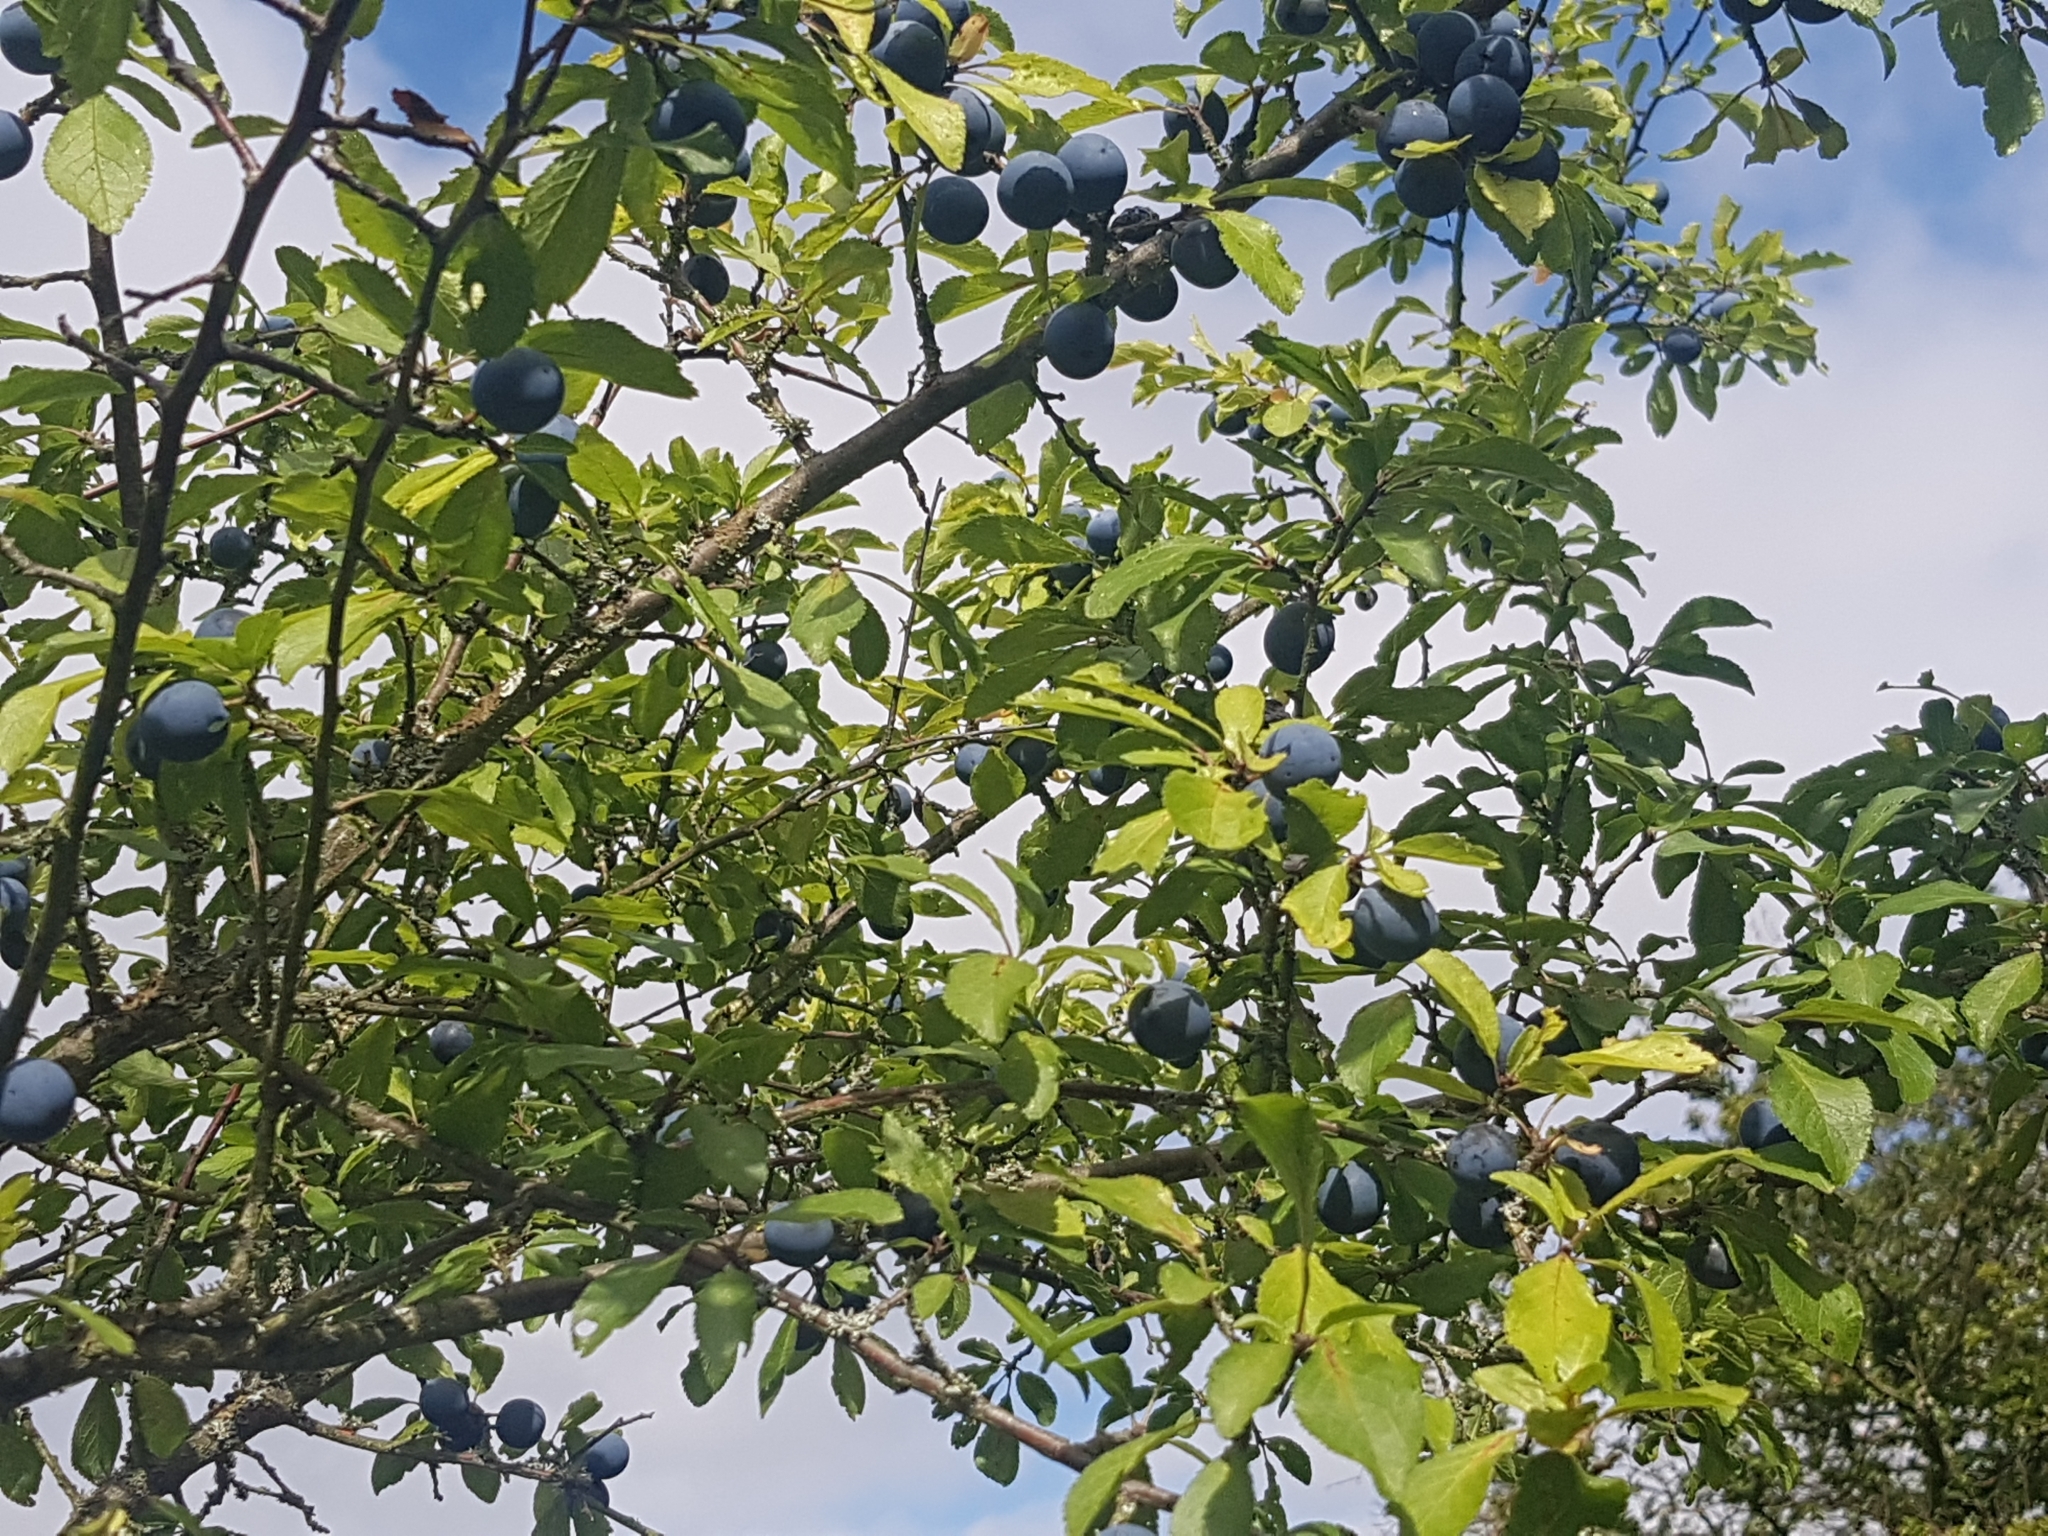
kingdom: Plantae
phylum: Tracheophyta
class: Magnoliopsida
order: Rosales
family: Rosaceae
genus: Prunus
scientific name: Prunus spinosa
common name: Blackthorn
